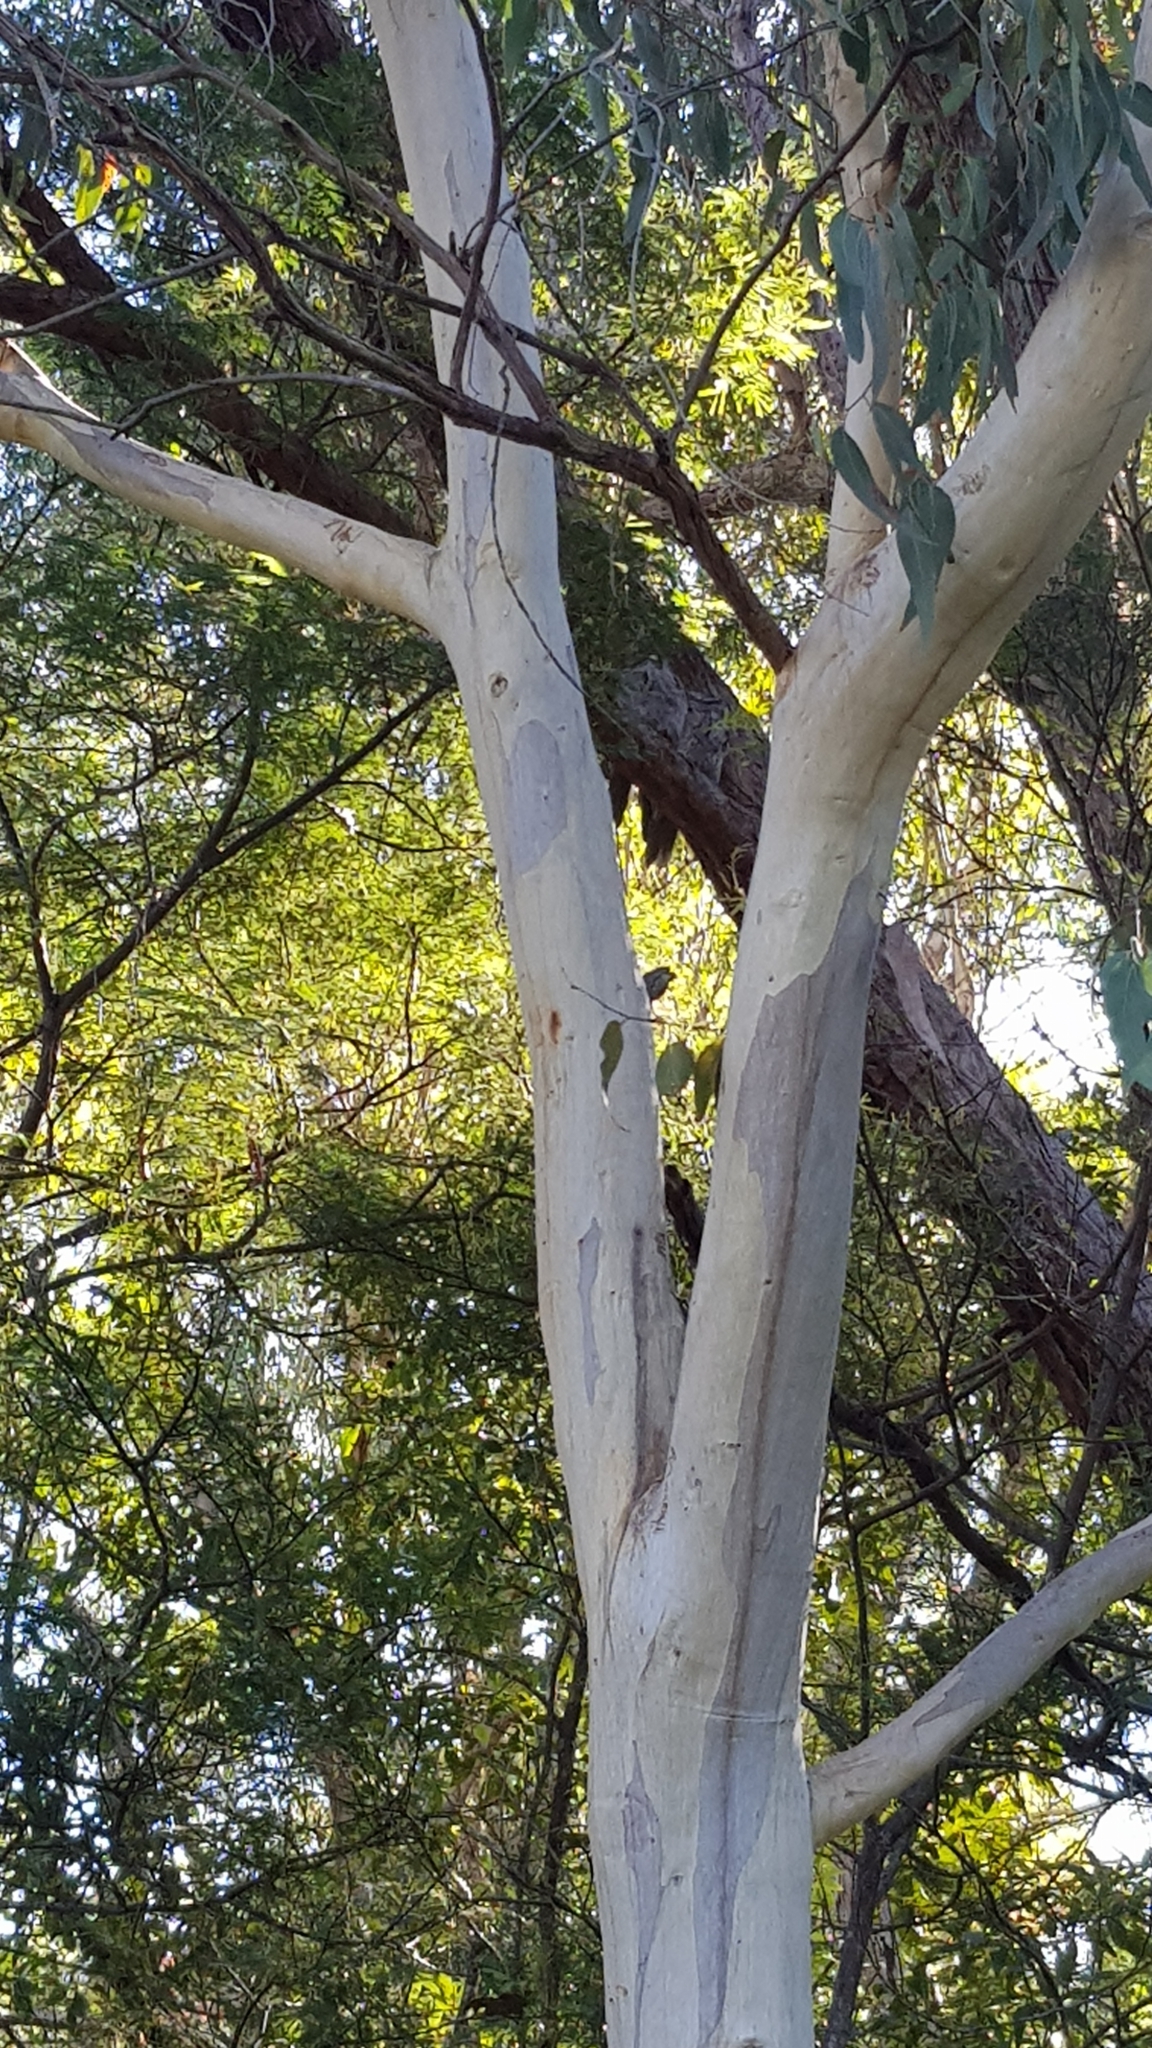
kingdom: Animalia
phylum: Chordata
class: Aves
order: Caprimulgiformes
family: Podargidae
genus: Podargus
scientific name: Podargus strigoides
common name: Tawny frogmouth
